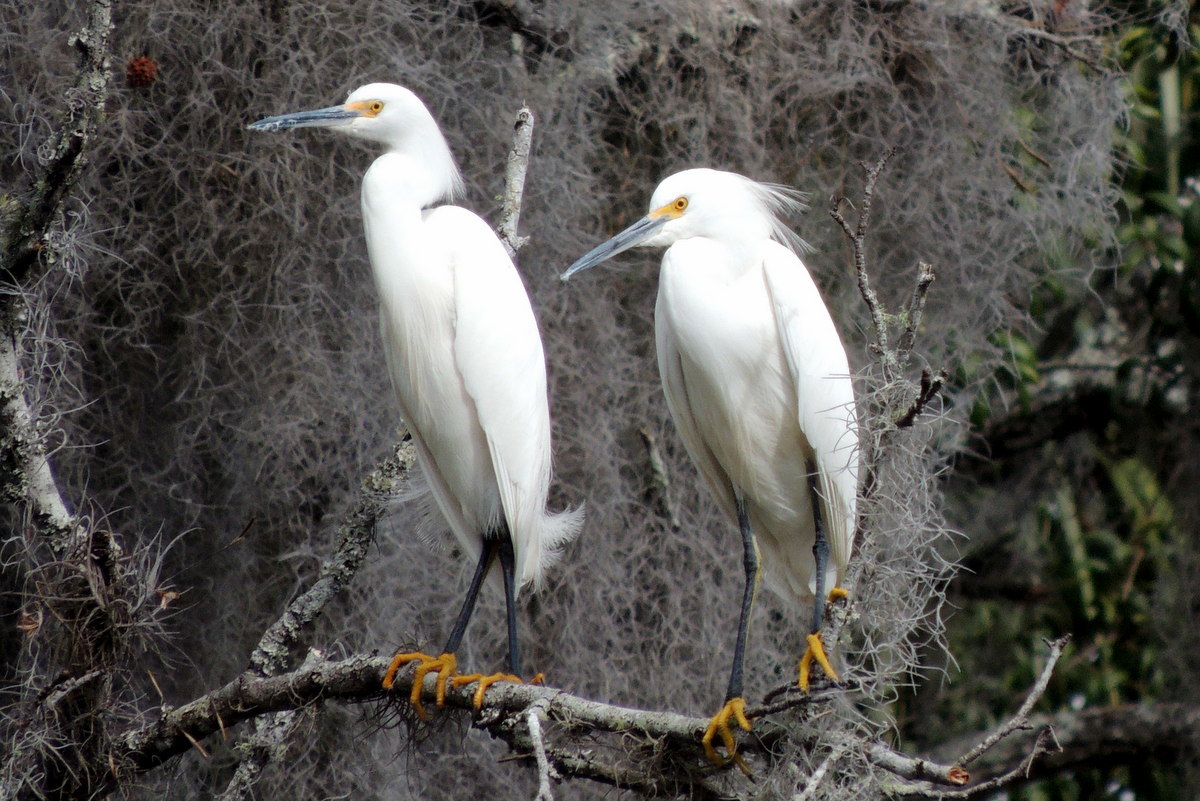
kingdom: Animalia
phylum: Chordata
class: Aves
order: Pelecaniformes
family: Ardeidae
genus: Egretta
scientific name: Egretta thula
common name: Snowy egret
